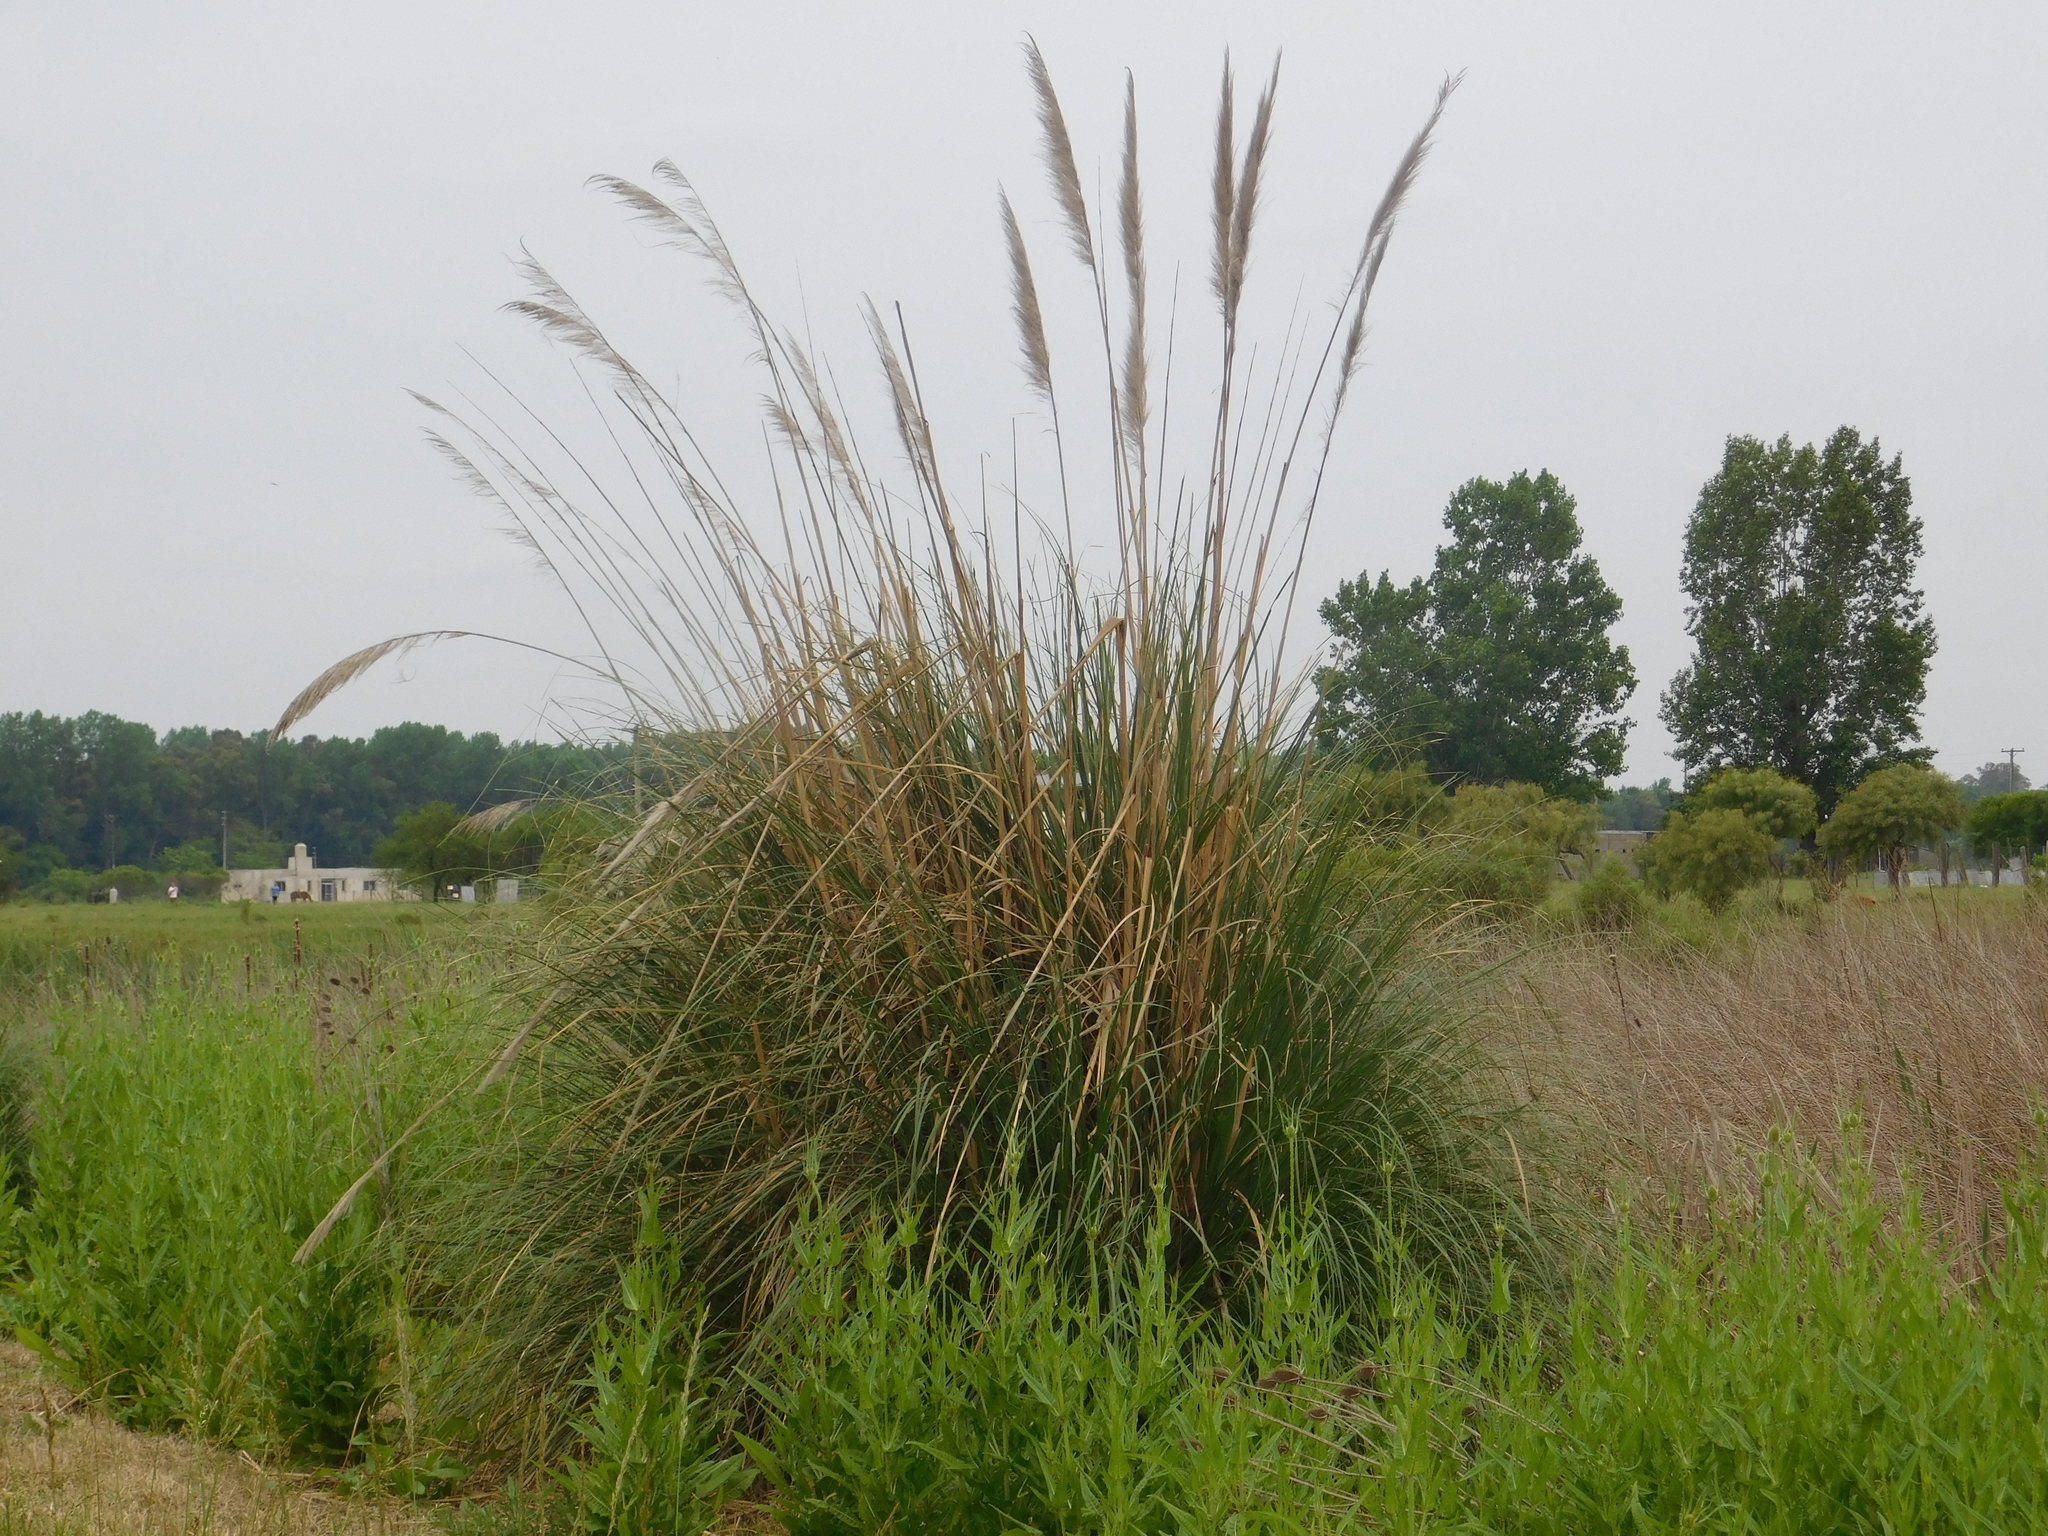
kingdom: Plantae
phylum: Tracheophyta
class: Liliopsida
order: Poales
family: Poaceae
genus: Cortaderia
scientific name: Cortaderia selloana
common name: Uruguayan pampas grass
